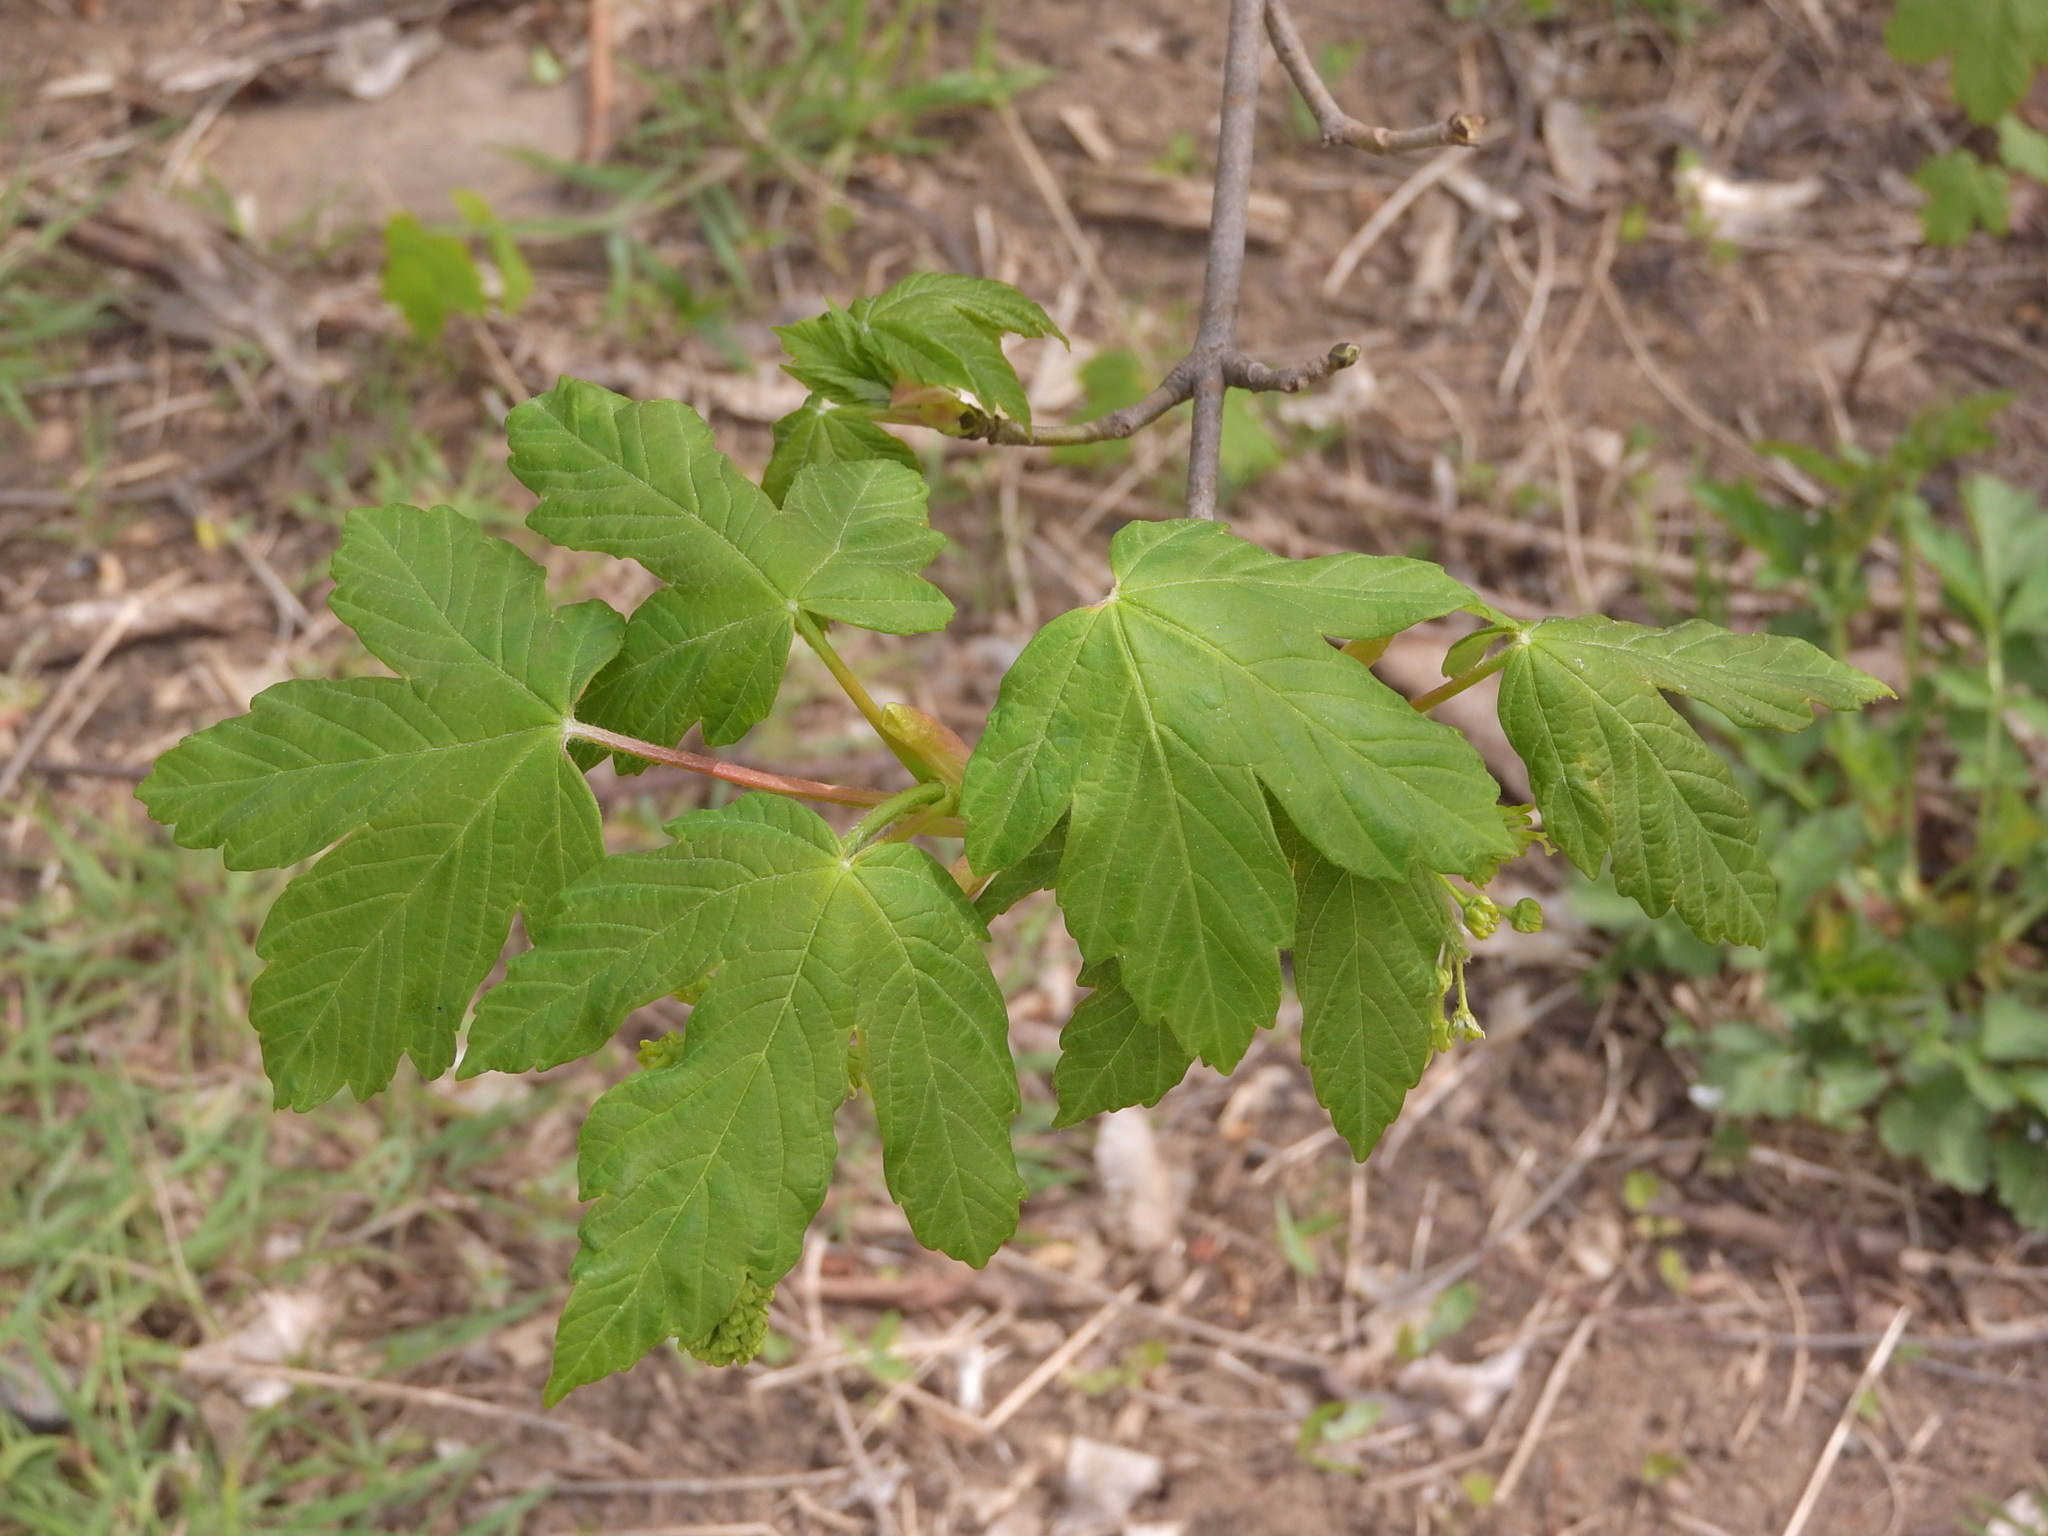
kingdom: Plantae
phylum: Tracheophyta
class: Magnoliopsida
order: Sapindales
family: Sapindaceae
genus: Acer
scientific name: Acer campestre
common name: Field maple
